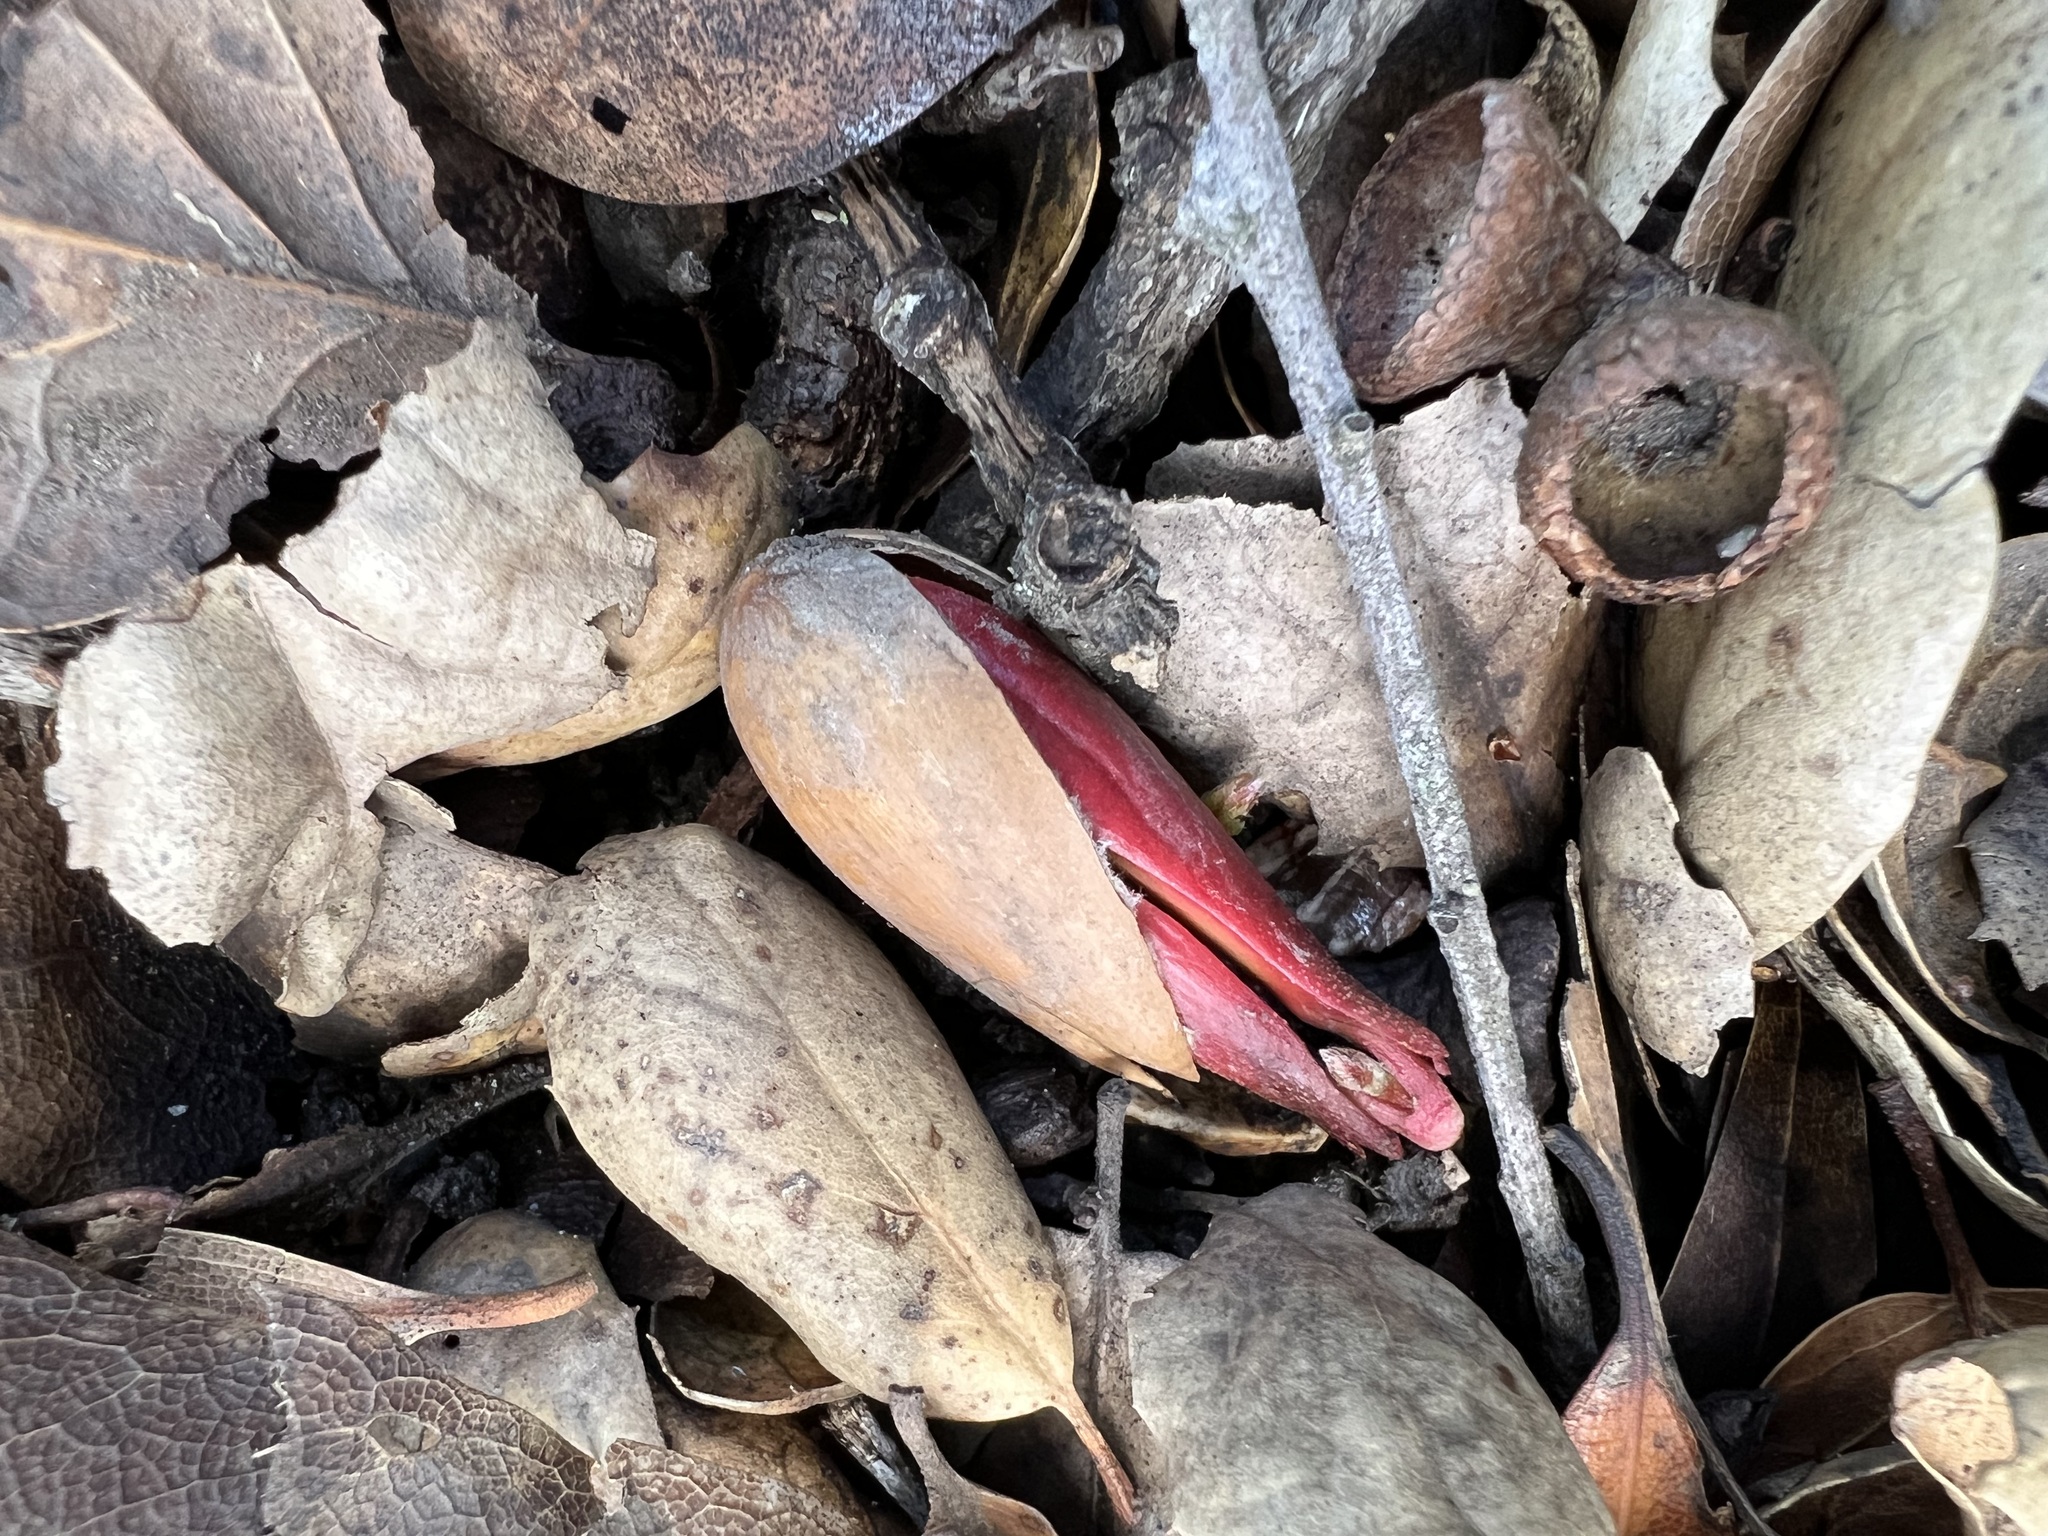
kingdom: Plantae
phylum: Tracheophyta
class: Magnoliopsida
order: Fagales
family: Fagaceae
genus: Quercus
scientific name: Quercus agrifolia
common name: California live oak
